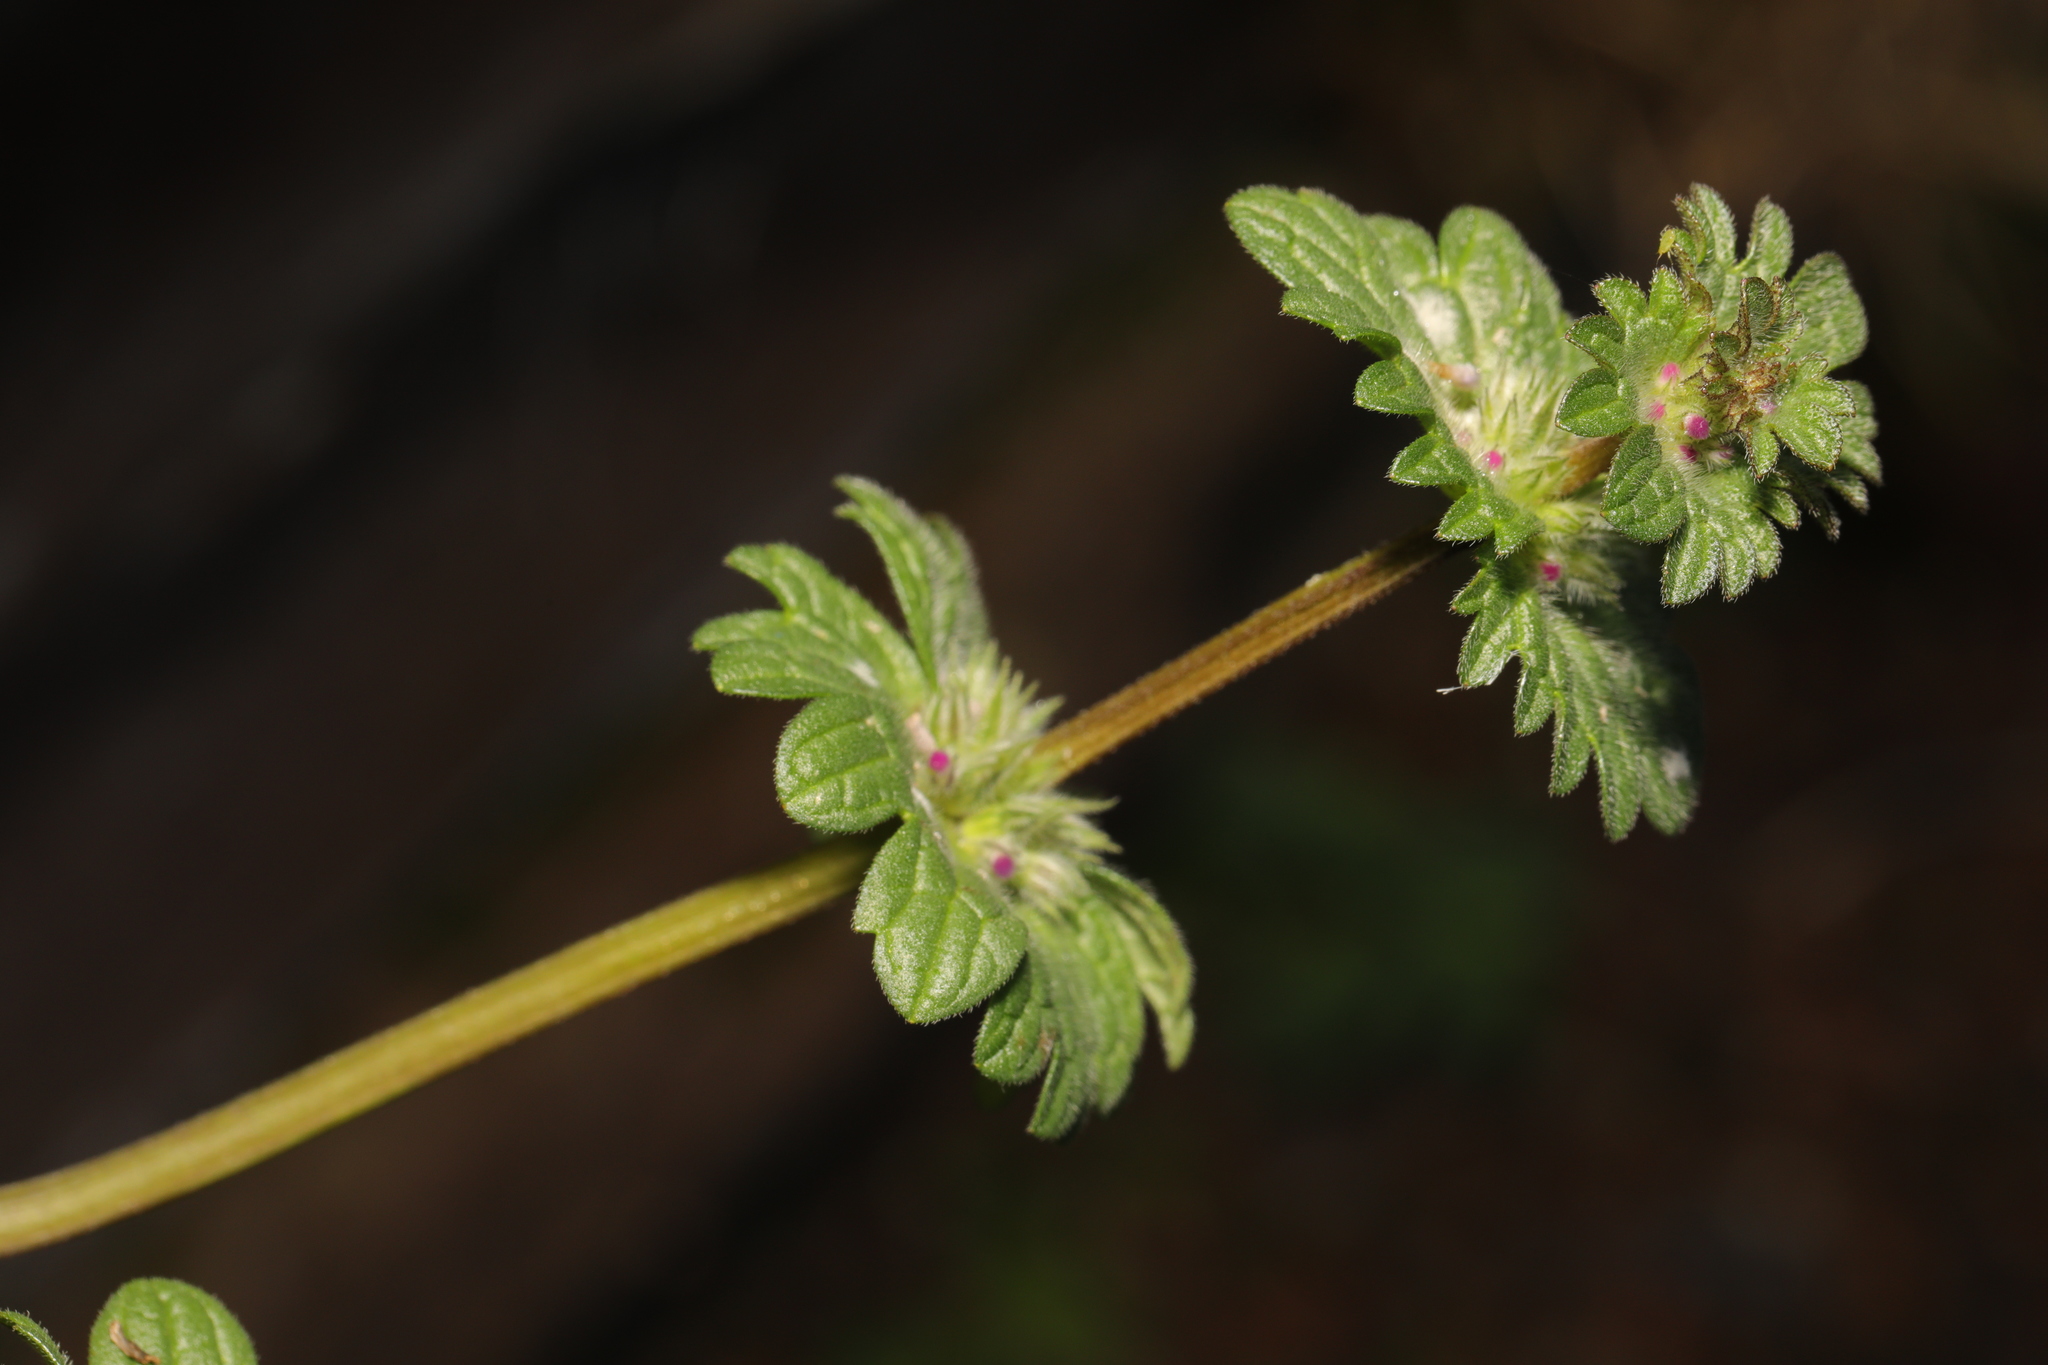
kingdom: Plantae
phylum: Tracheophyta
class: Magnoliopsida
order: Lamiales
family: Lamiaceae
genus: Lamium
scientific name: Lamium amplexicaule
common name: Henbit dead-nettle
